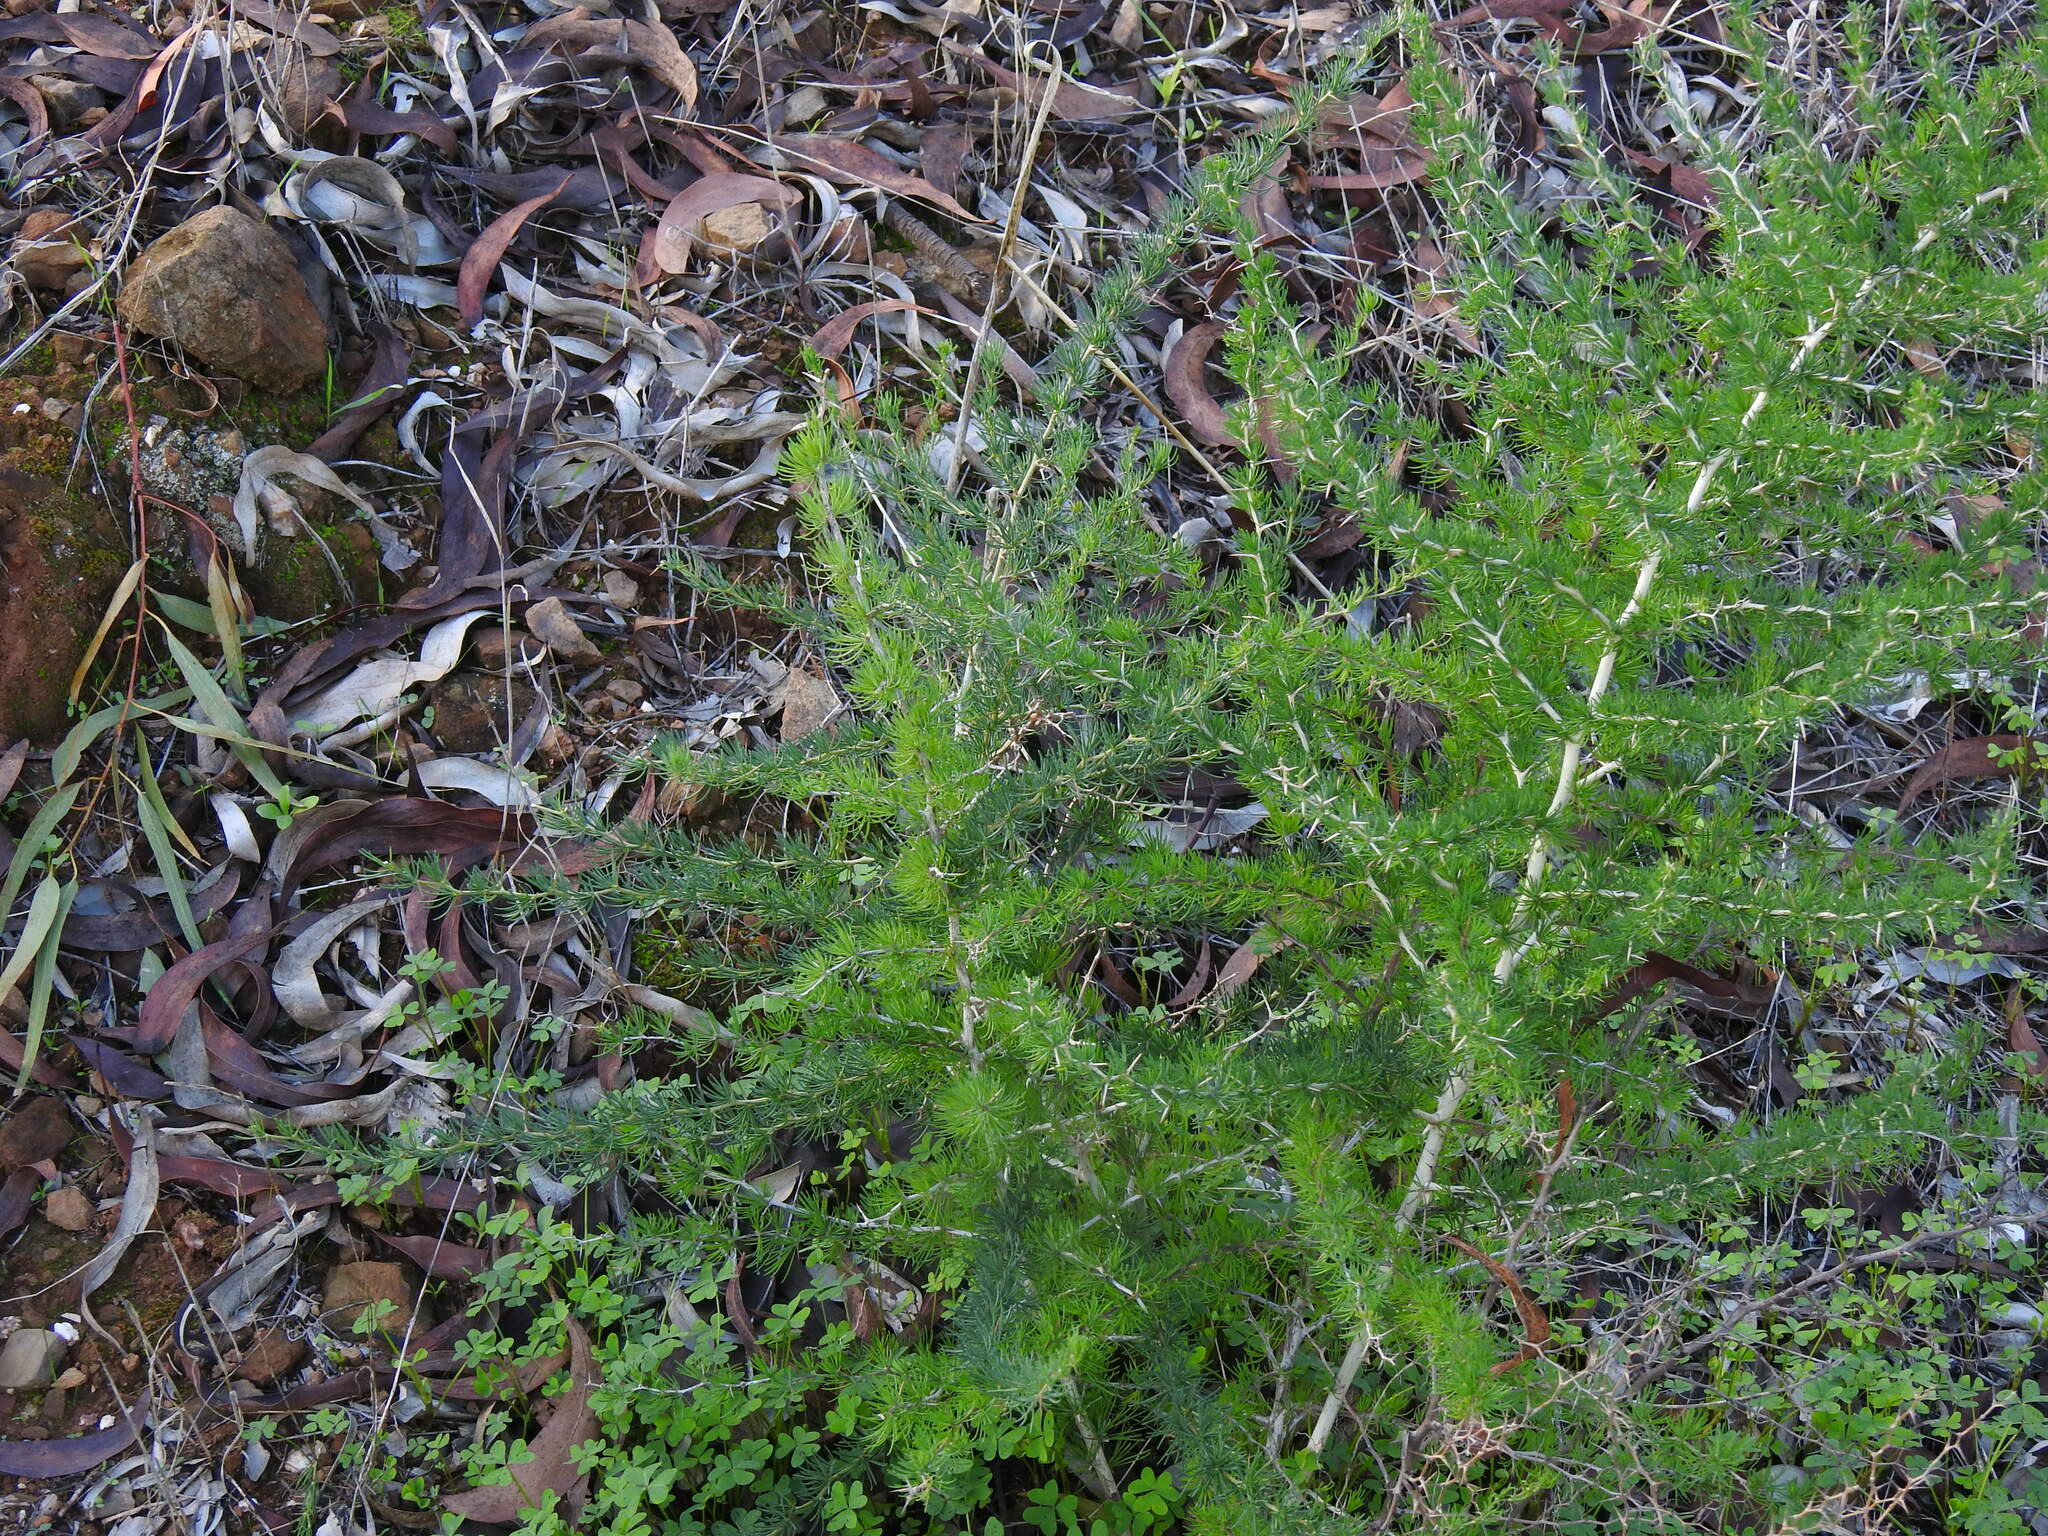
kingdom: Plantae
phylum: Tracheophyta
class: Liliopsida
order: Asparagales
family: Asparagaceae
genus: Asparagus
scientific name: Asparagus albus
